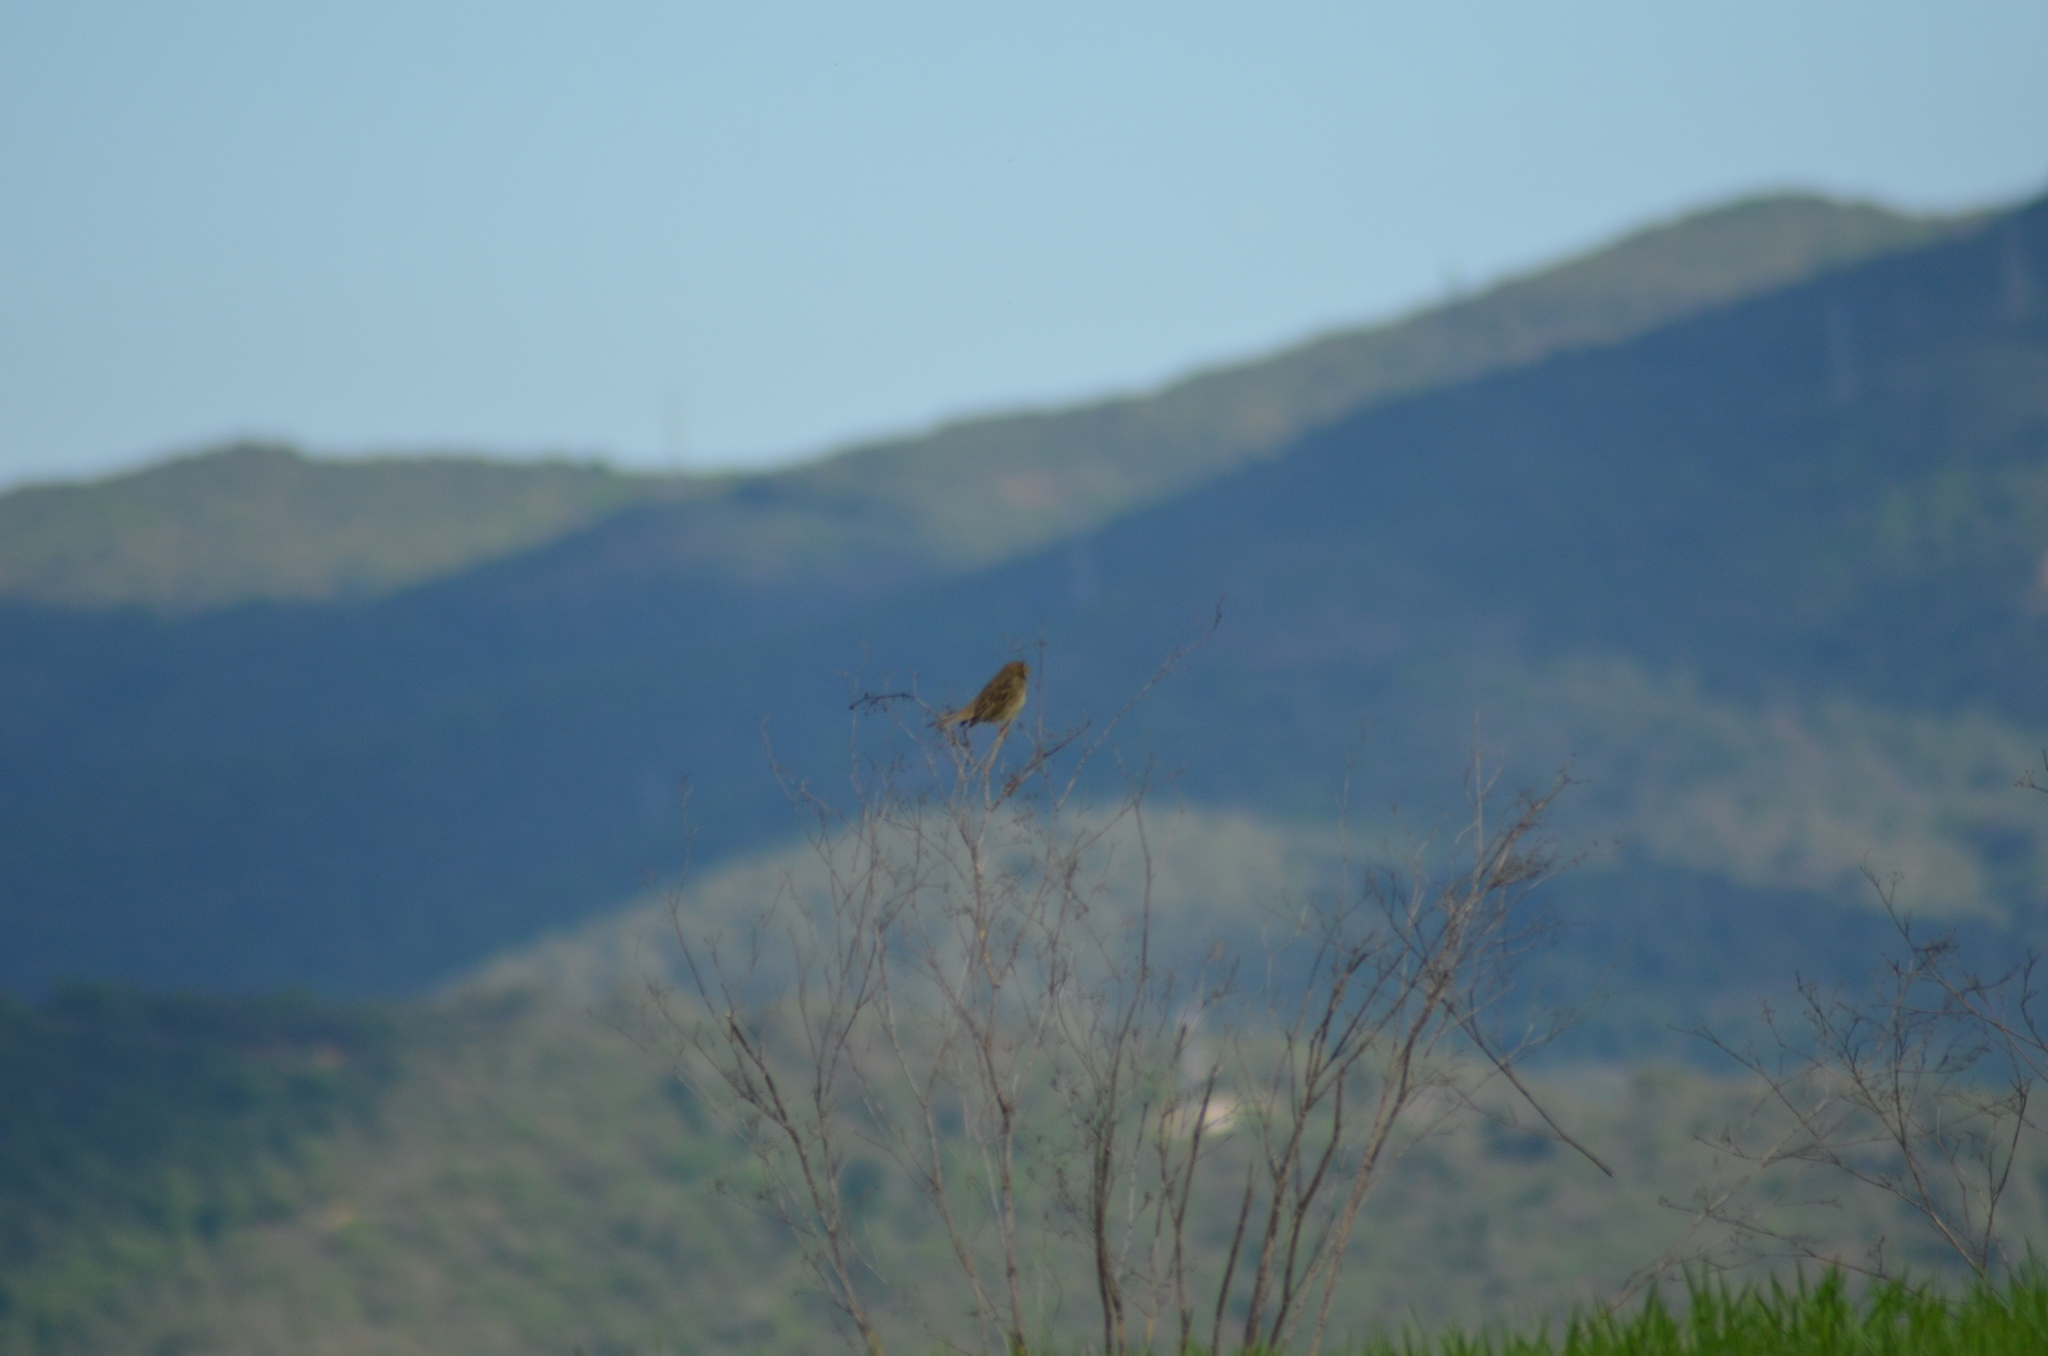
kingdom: Animalia
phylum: Chordata
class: Aves
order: Passeriformes
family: Emberizidae
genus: Emberiza
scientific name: Emberiza calandra
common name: Corn bunting
